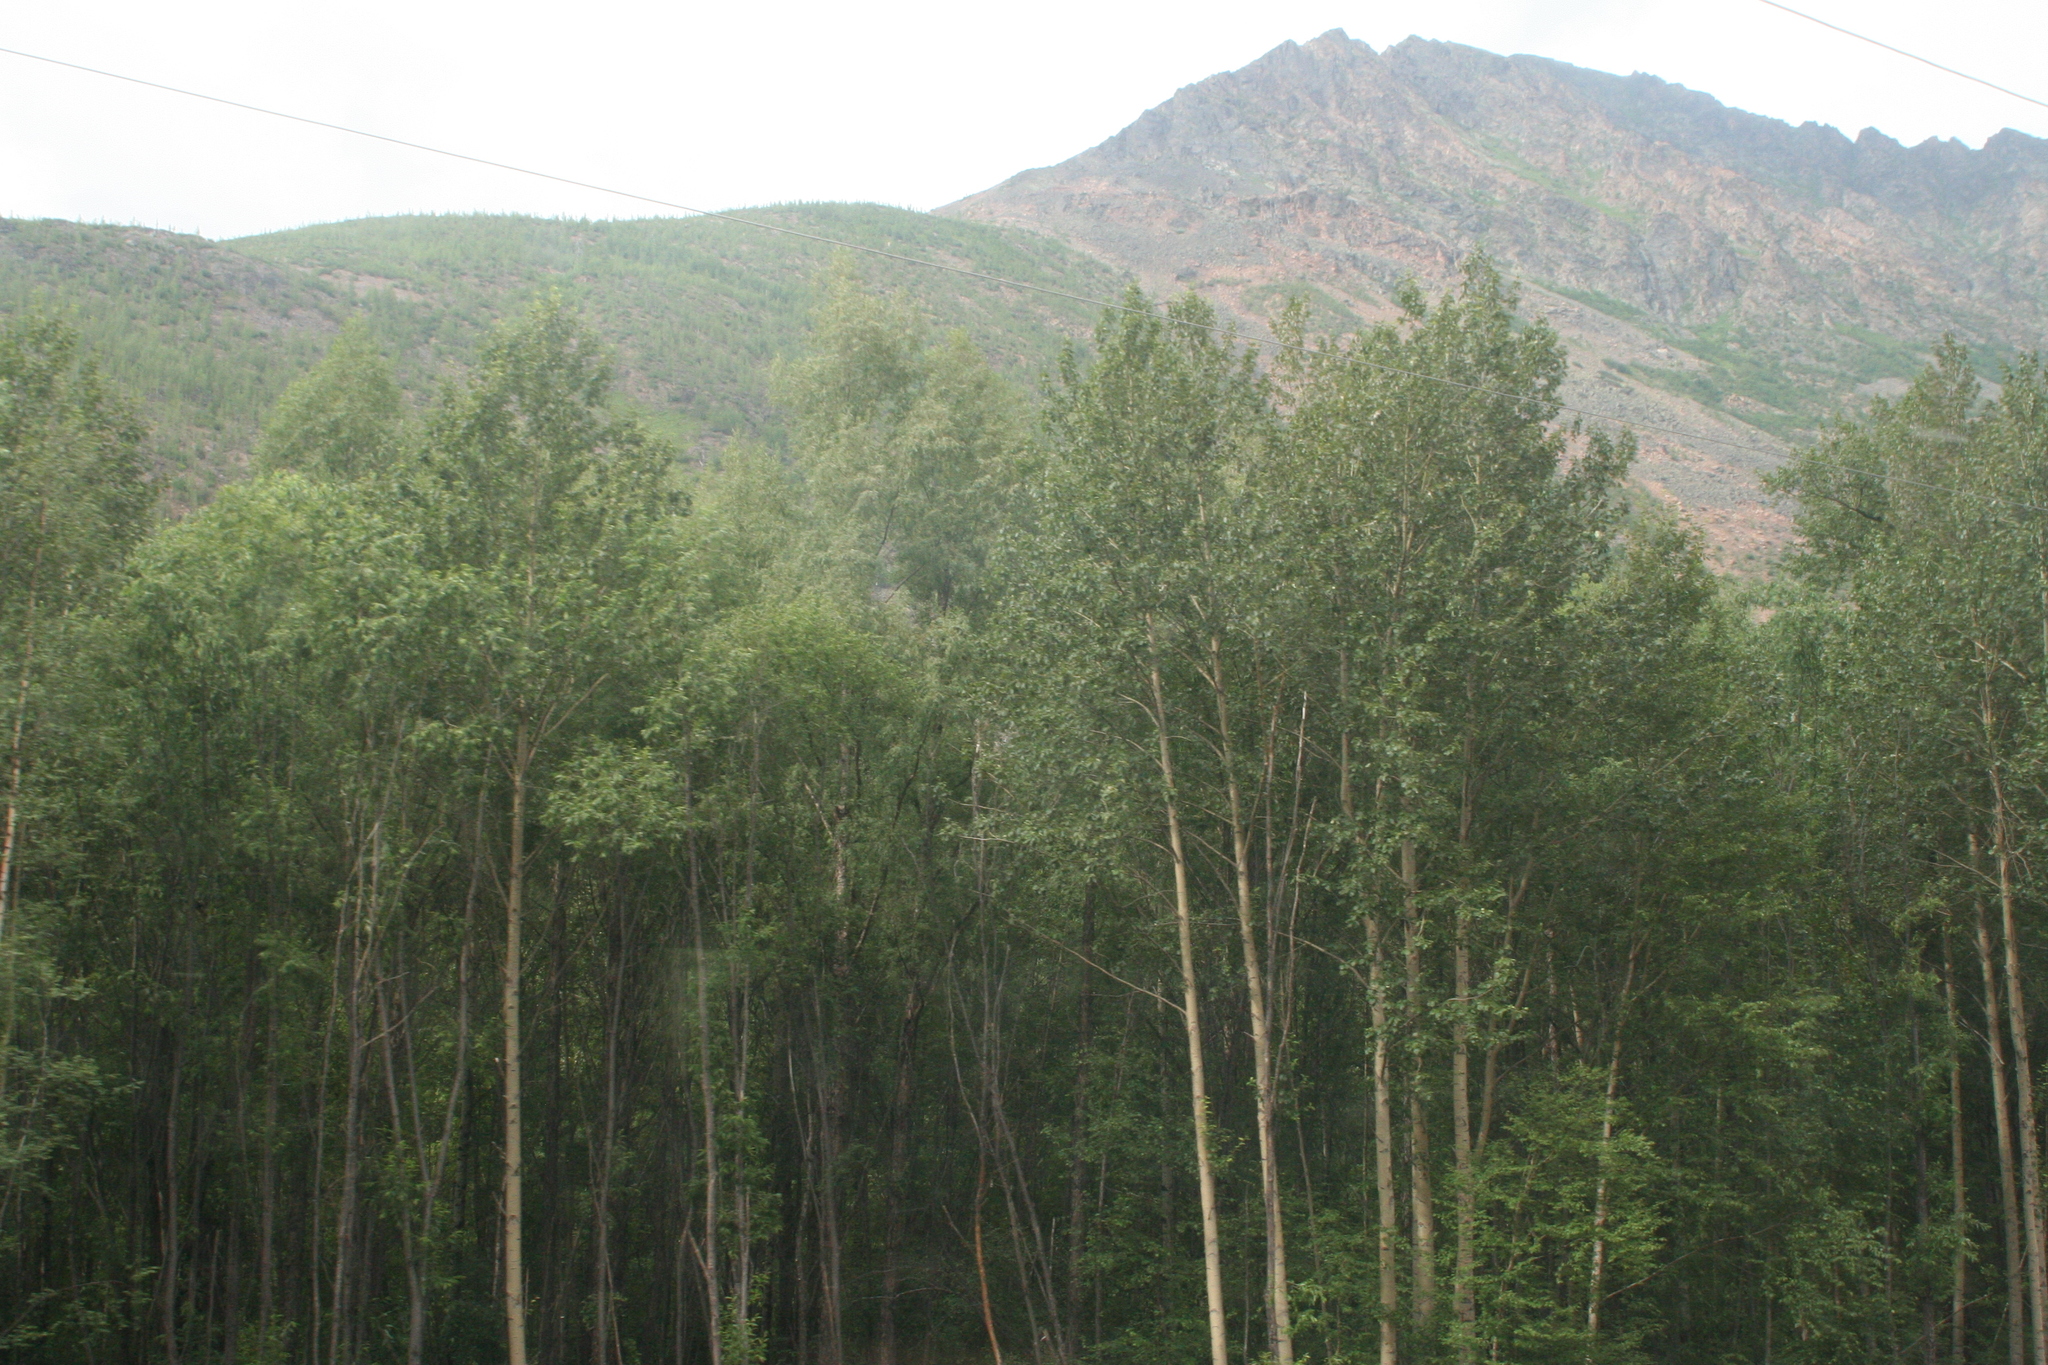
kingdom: Plantae
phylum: Tracheophyta
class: Magnoliopsida
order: Malpighiales
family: Salicaceae
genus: Populus
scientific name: Populus tremula
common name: European aspen
